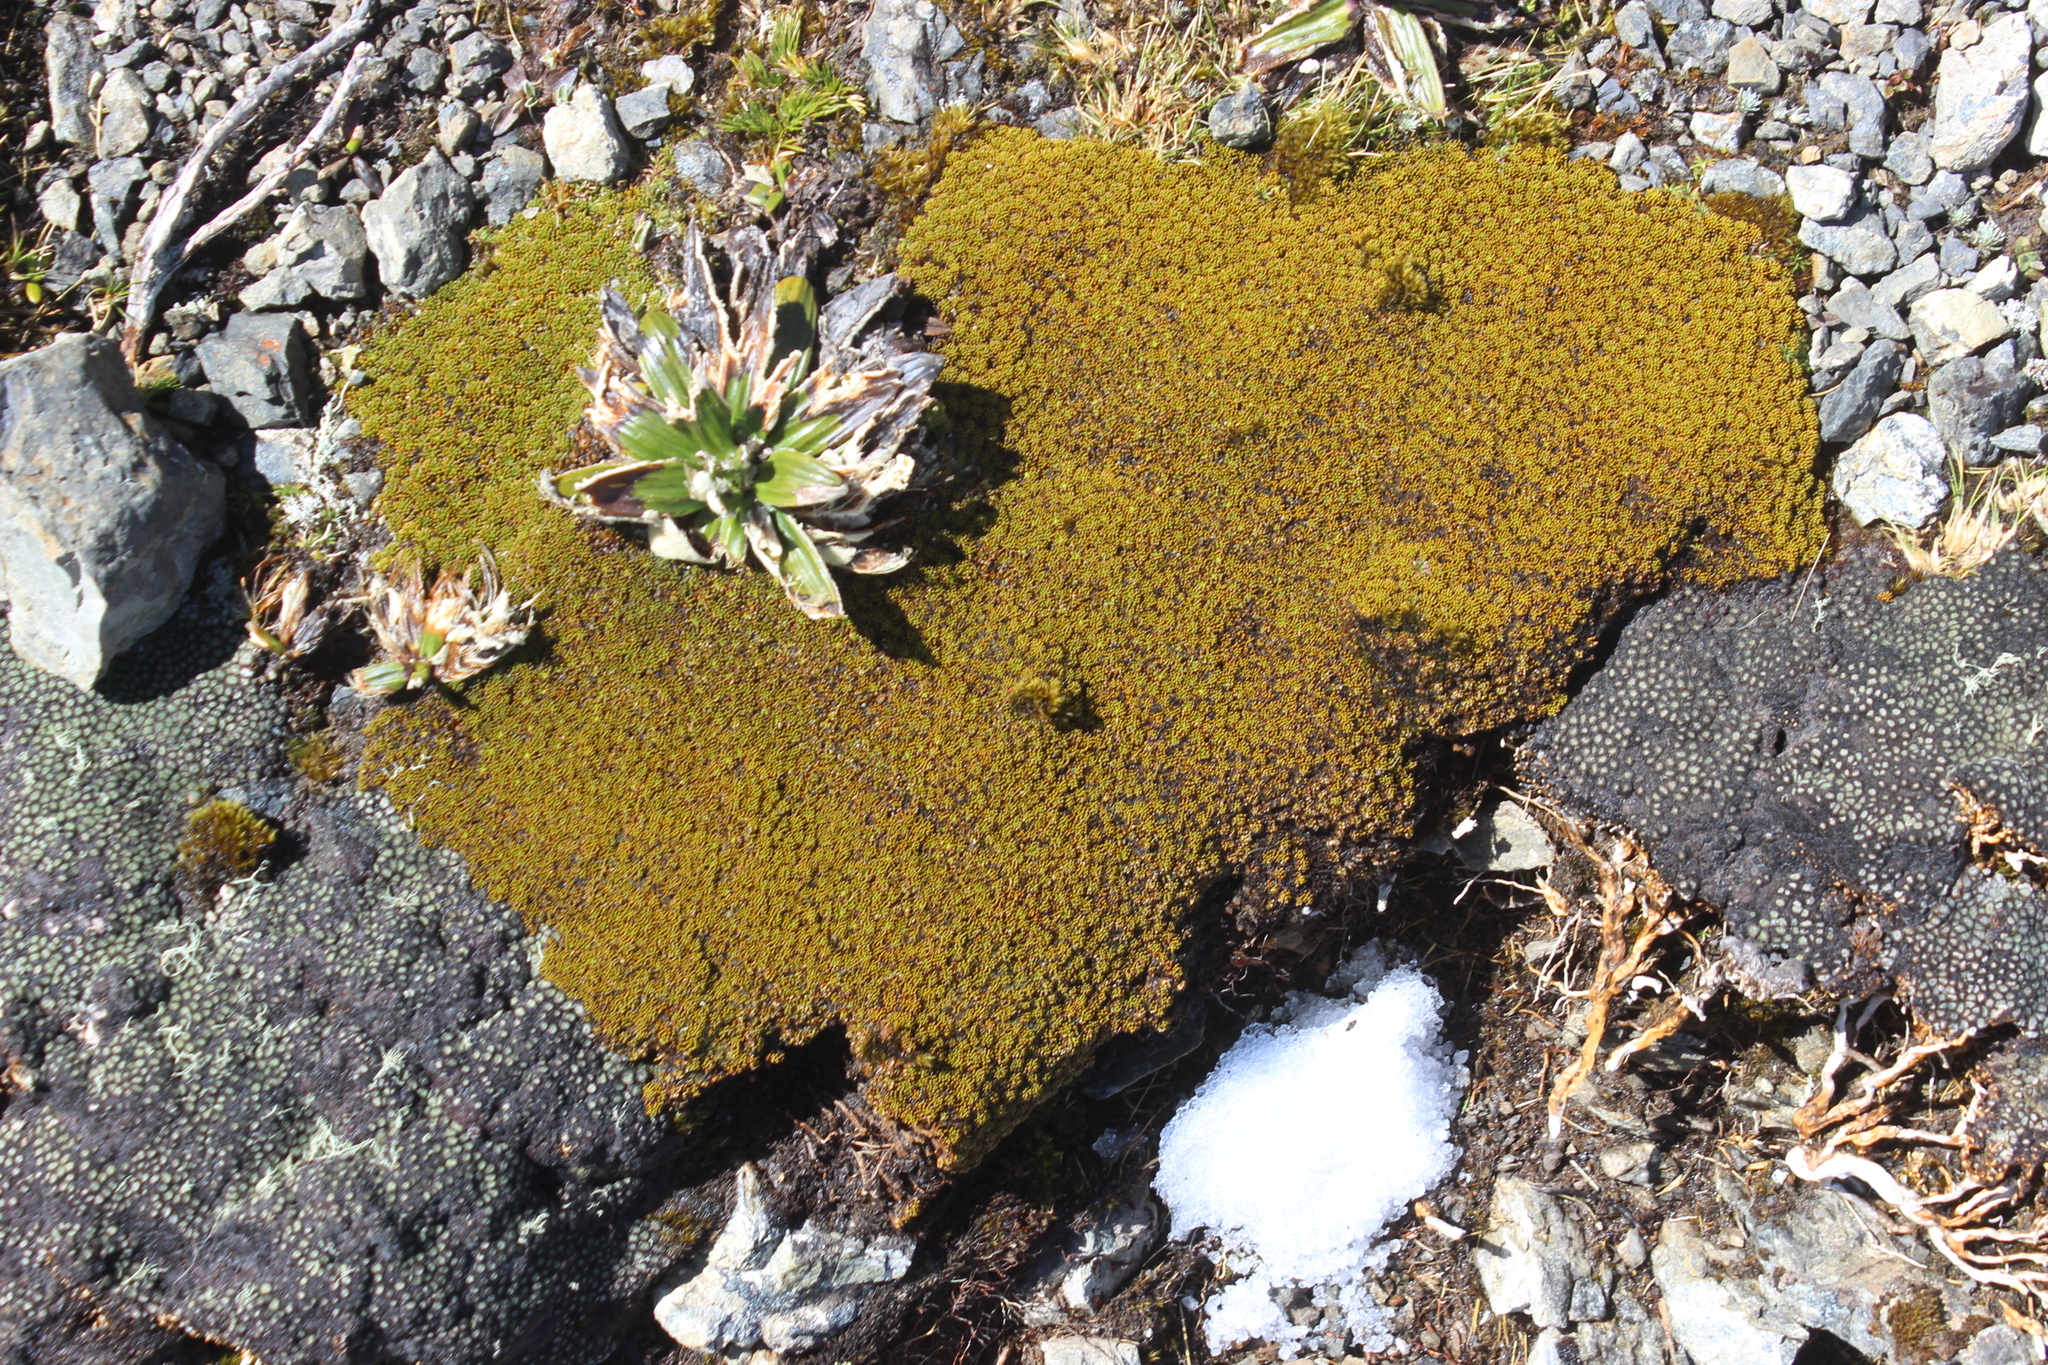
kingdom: Plantae
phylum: Tracheophyta
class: Magnoliopsida
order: Asterales
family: Stylidiaceae
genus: Phyllachne
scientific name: Phyllachne colensoi
